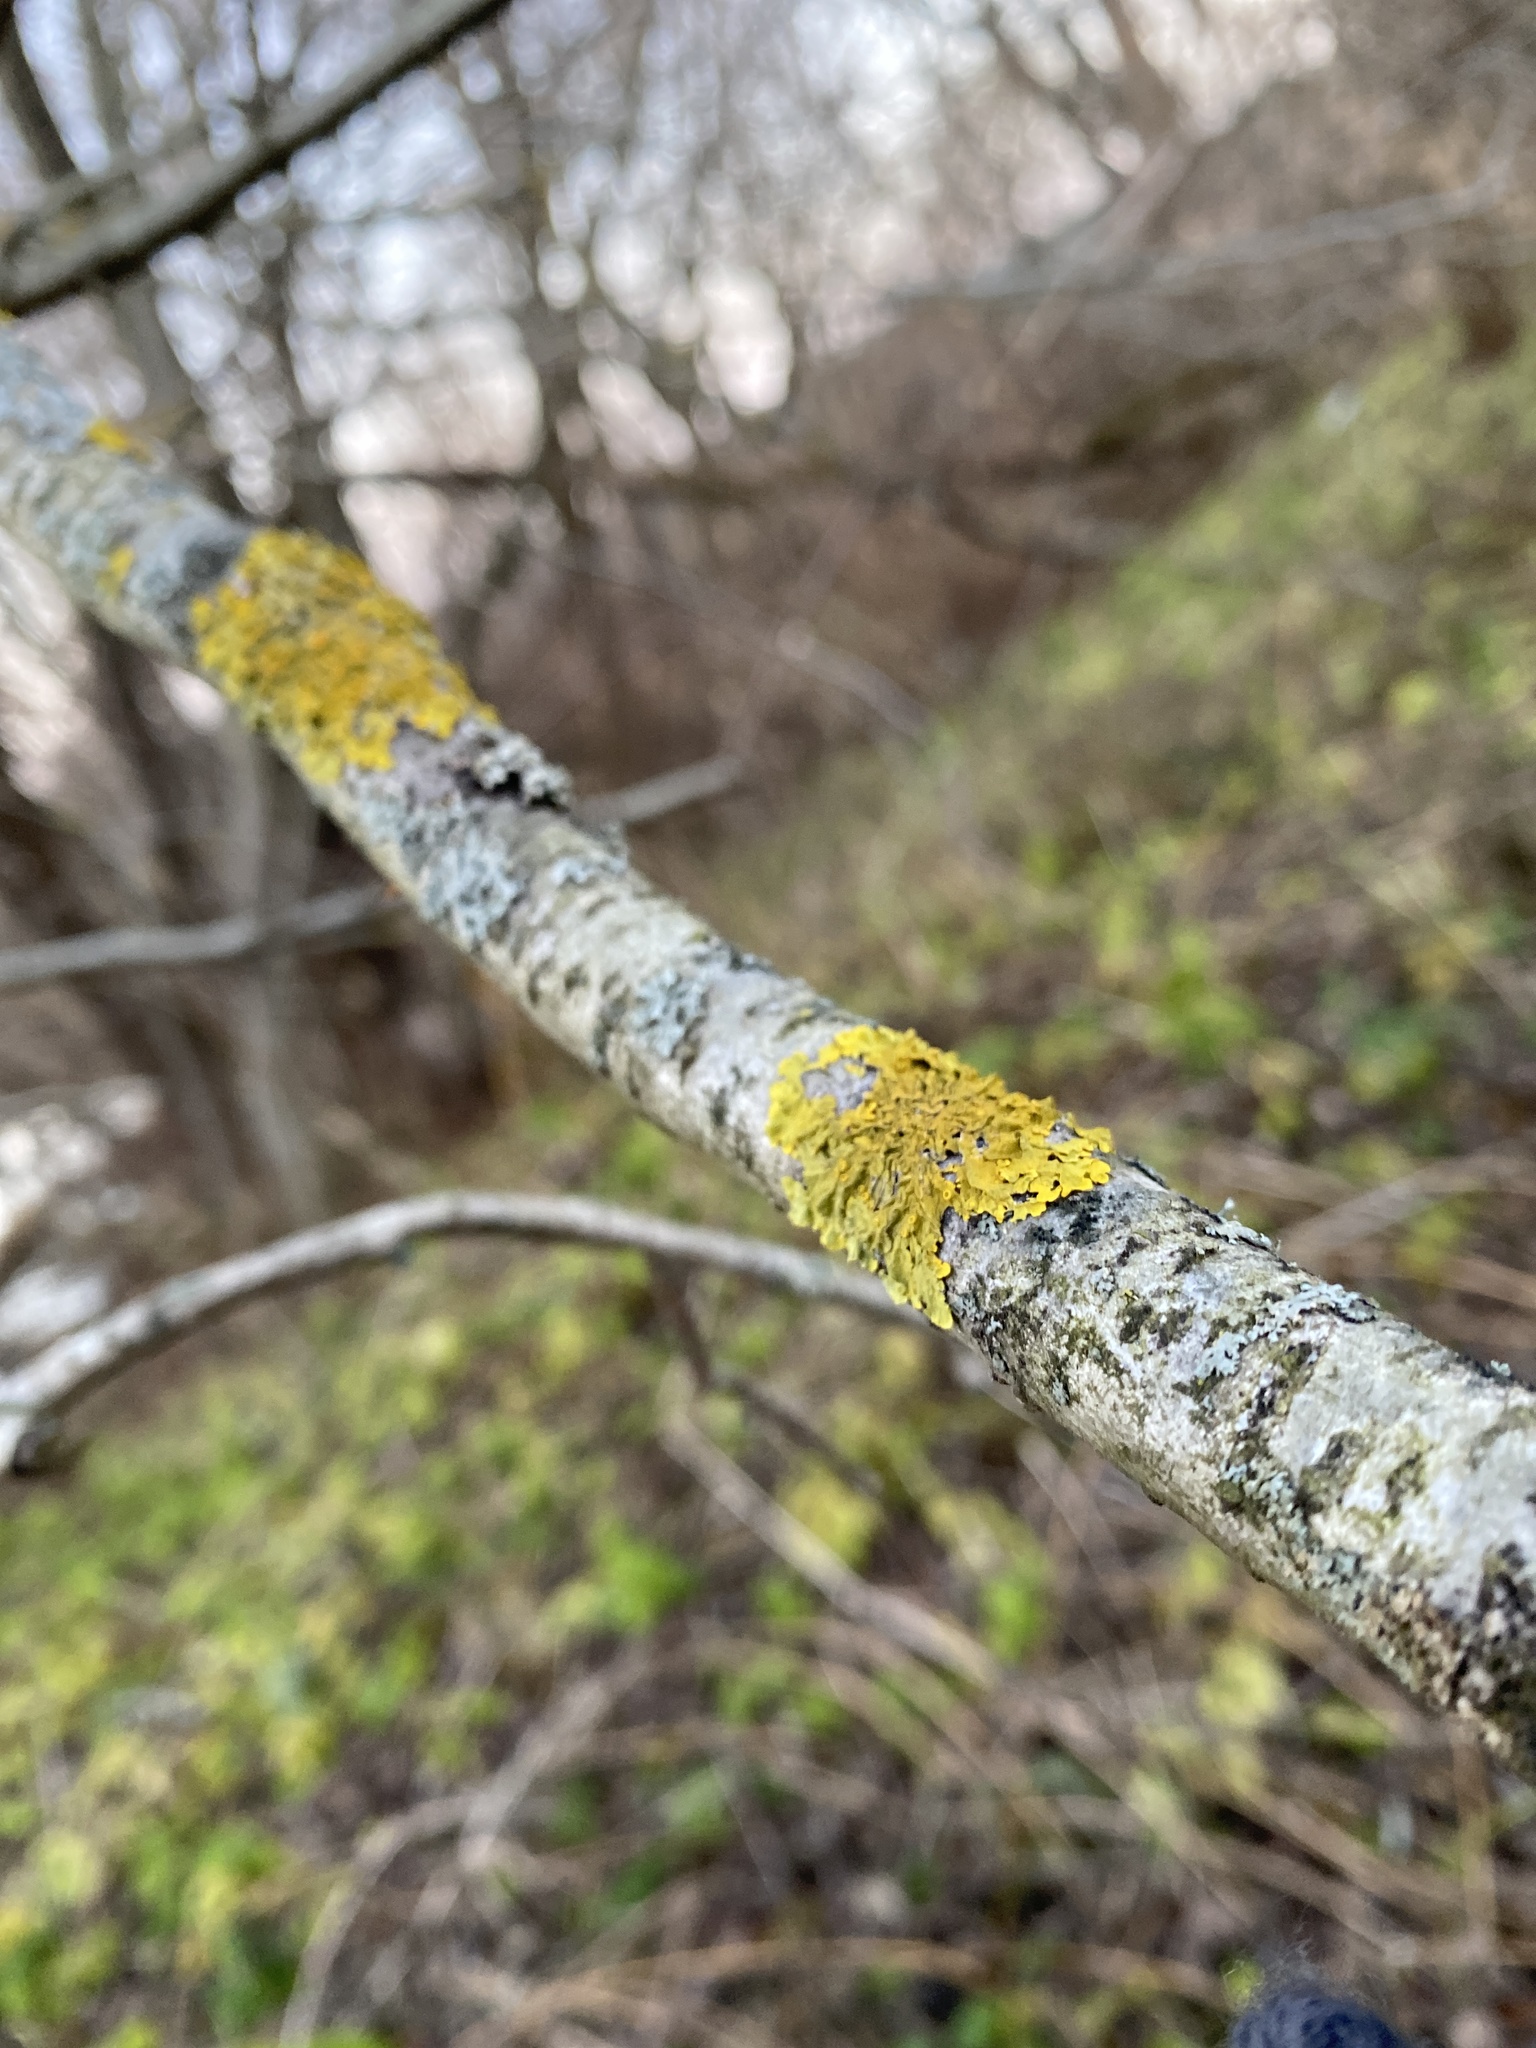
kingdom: Fungi
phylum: Ascomycota
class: Lecanoromycetes
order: Teloschistales
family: Teloschistaceae
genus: Xanthoria
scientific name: Xanthoria parietina
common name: Common orange lichen
